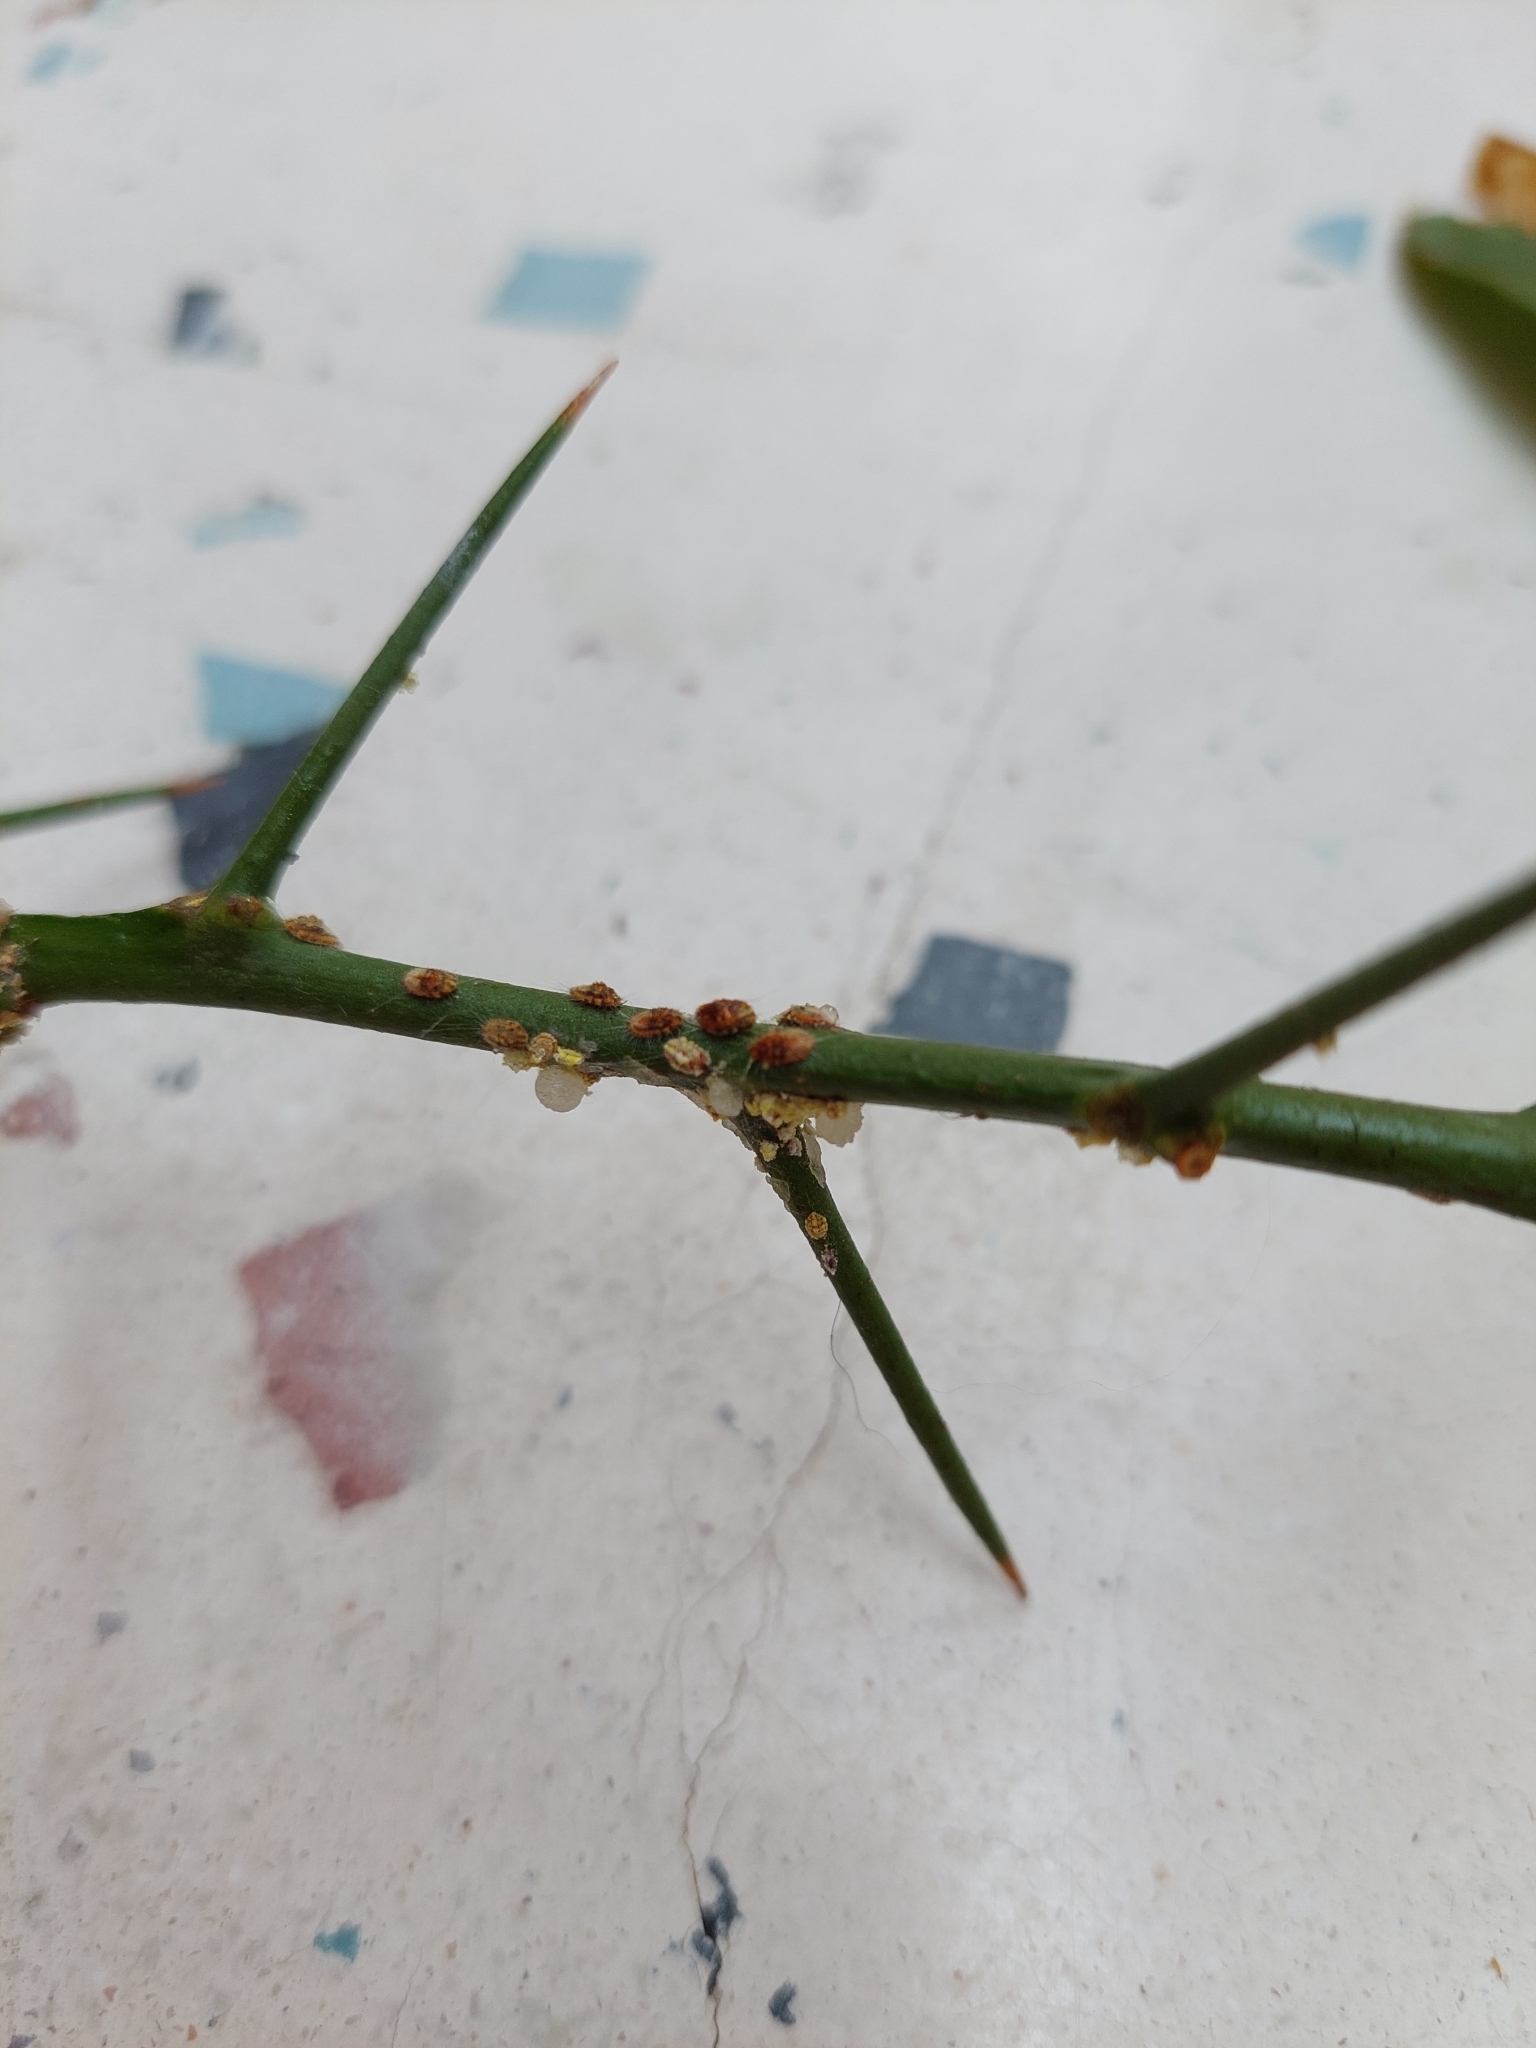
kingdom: Animalia
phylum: Arthropoda
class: Insecta
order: Hemiptera
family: Margarodidae
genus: Icerya
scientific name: Icerya purchasi
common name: Cottony cushion scale
